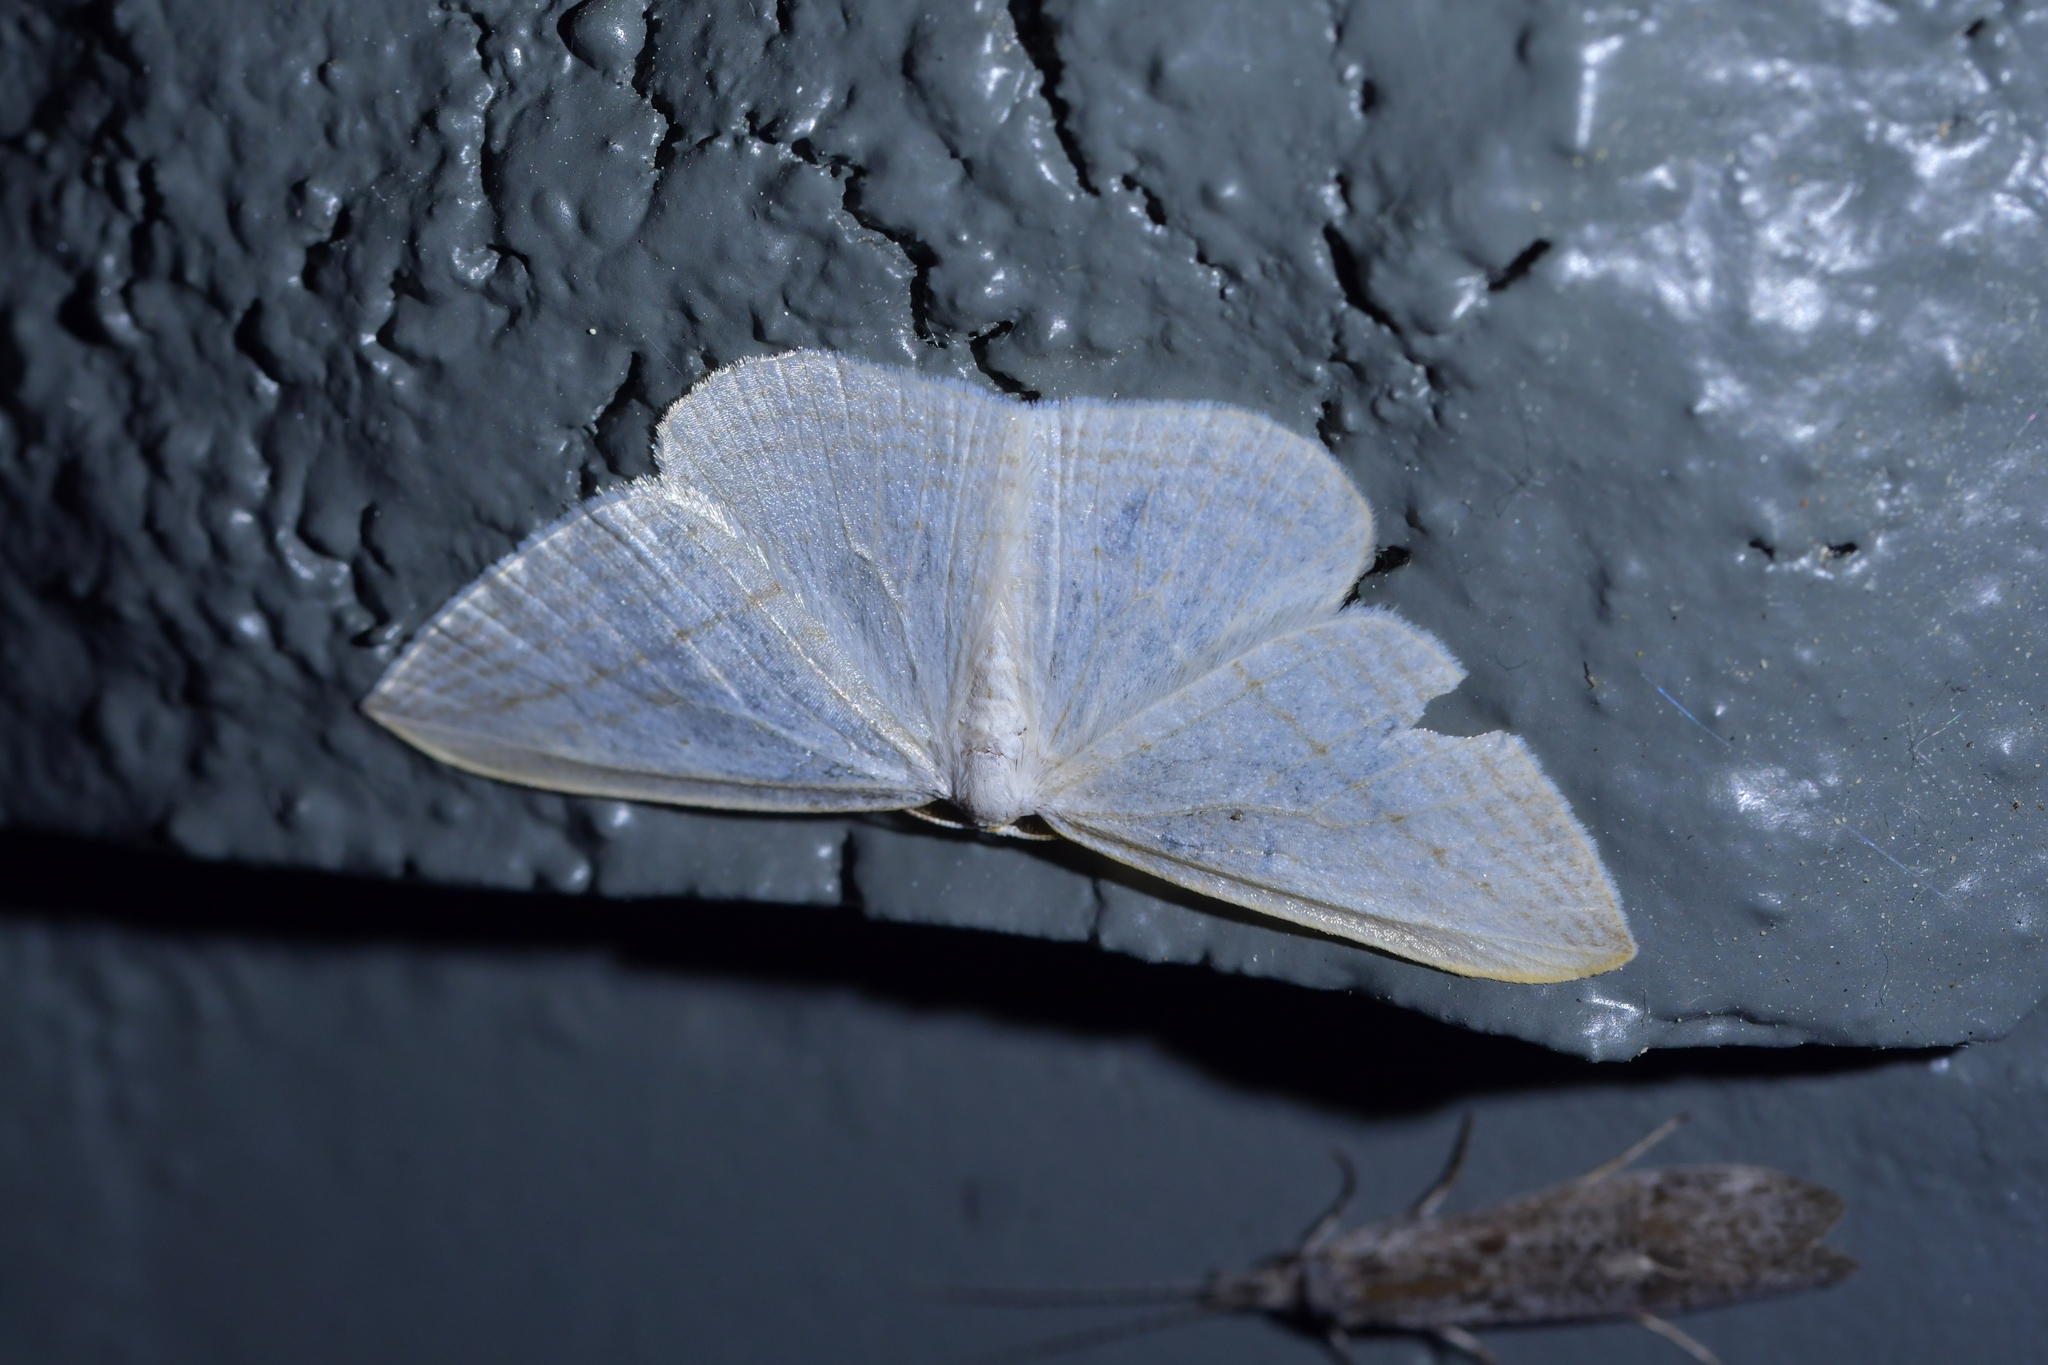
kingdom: Animalia
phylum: Arthropoda
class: Insecta
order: Lepidoptera
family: Geometridae
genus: Orthoclydon
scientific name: Orthoclydon praefectata
